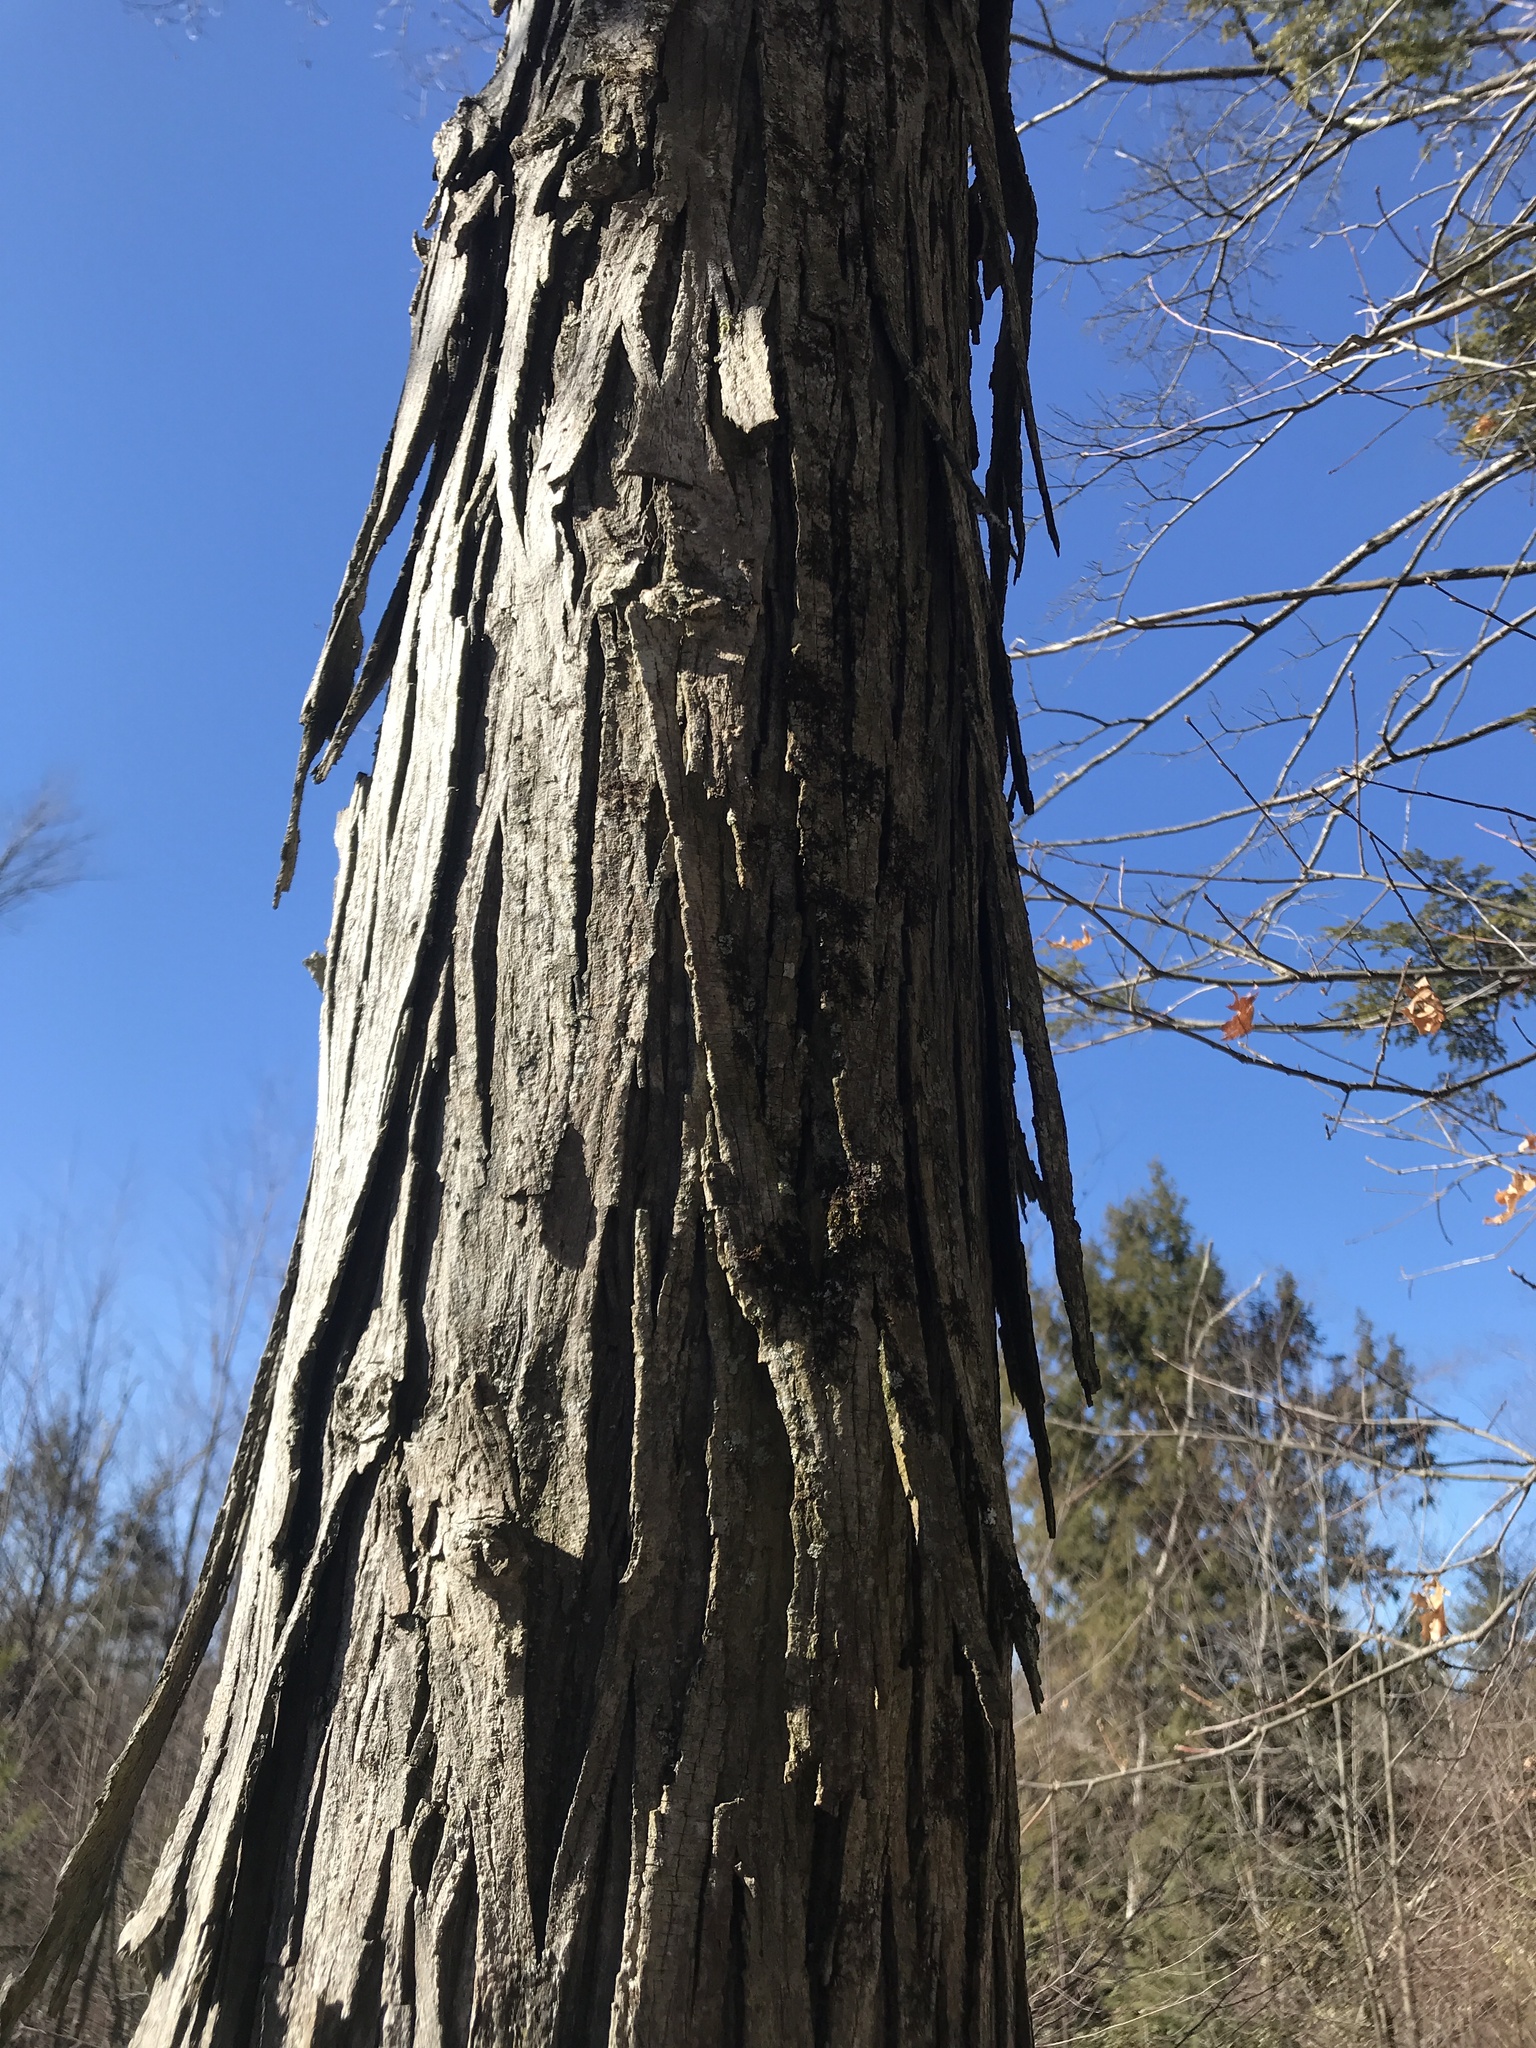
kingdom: Plantae
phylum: Tracheophyta
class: Magnoliopsida
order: Fagales
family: Juglandaceae
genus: Carya
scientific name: Carya ovata
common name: Shagbark hickory
